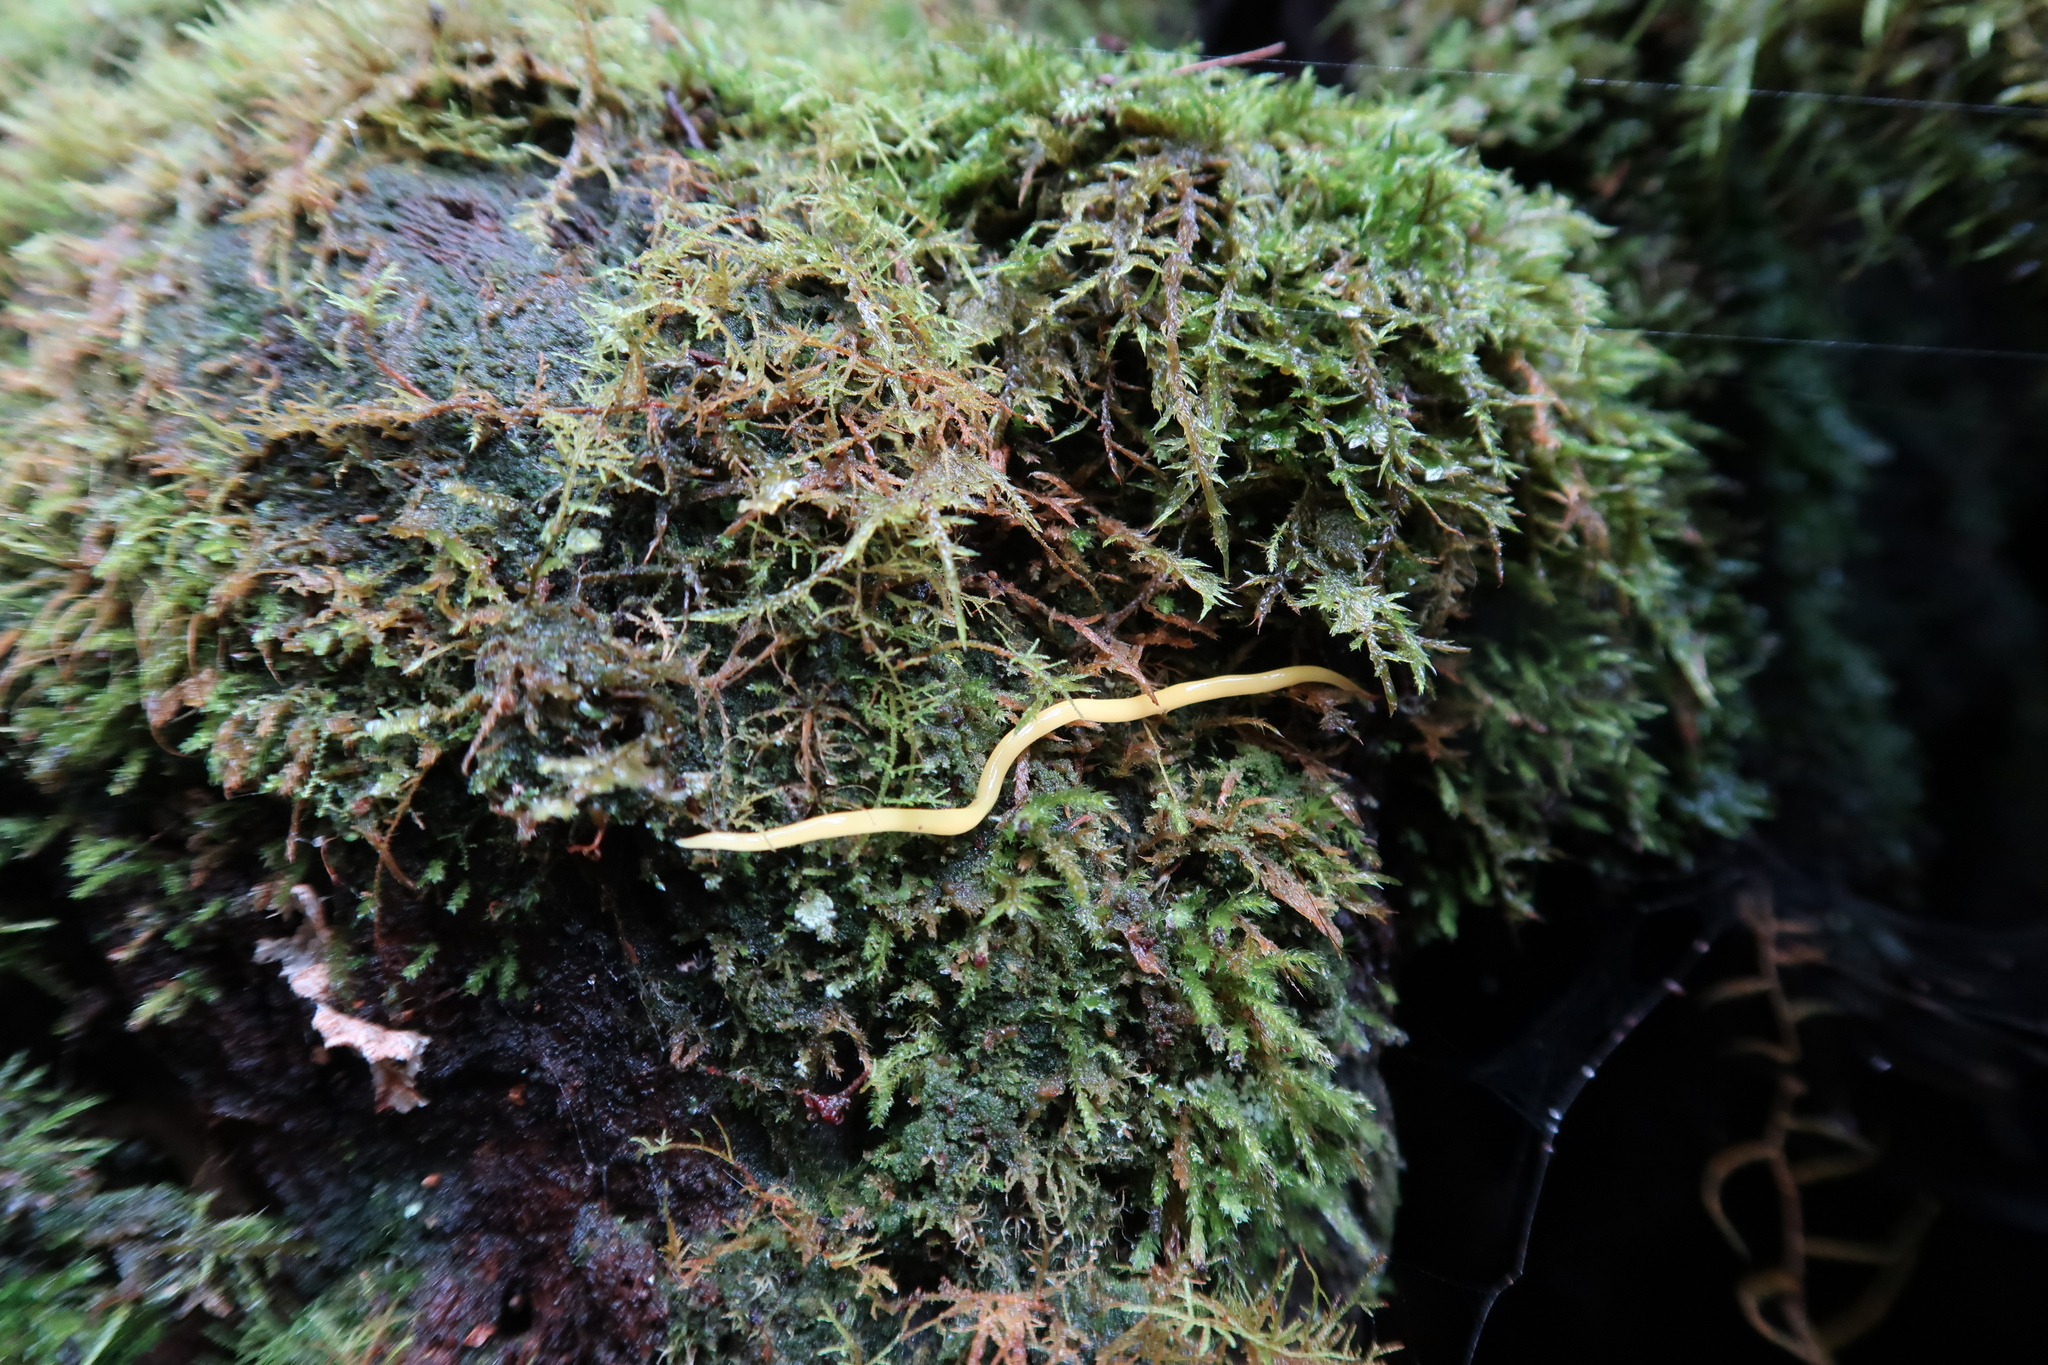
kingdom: Animalia
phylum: Platyhelminthes
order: Tricladida
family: Geoplanidae
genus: Fletchamia
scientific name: Fletchamia sugdeni
